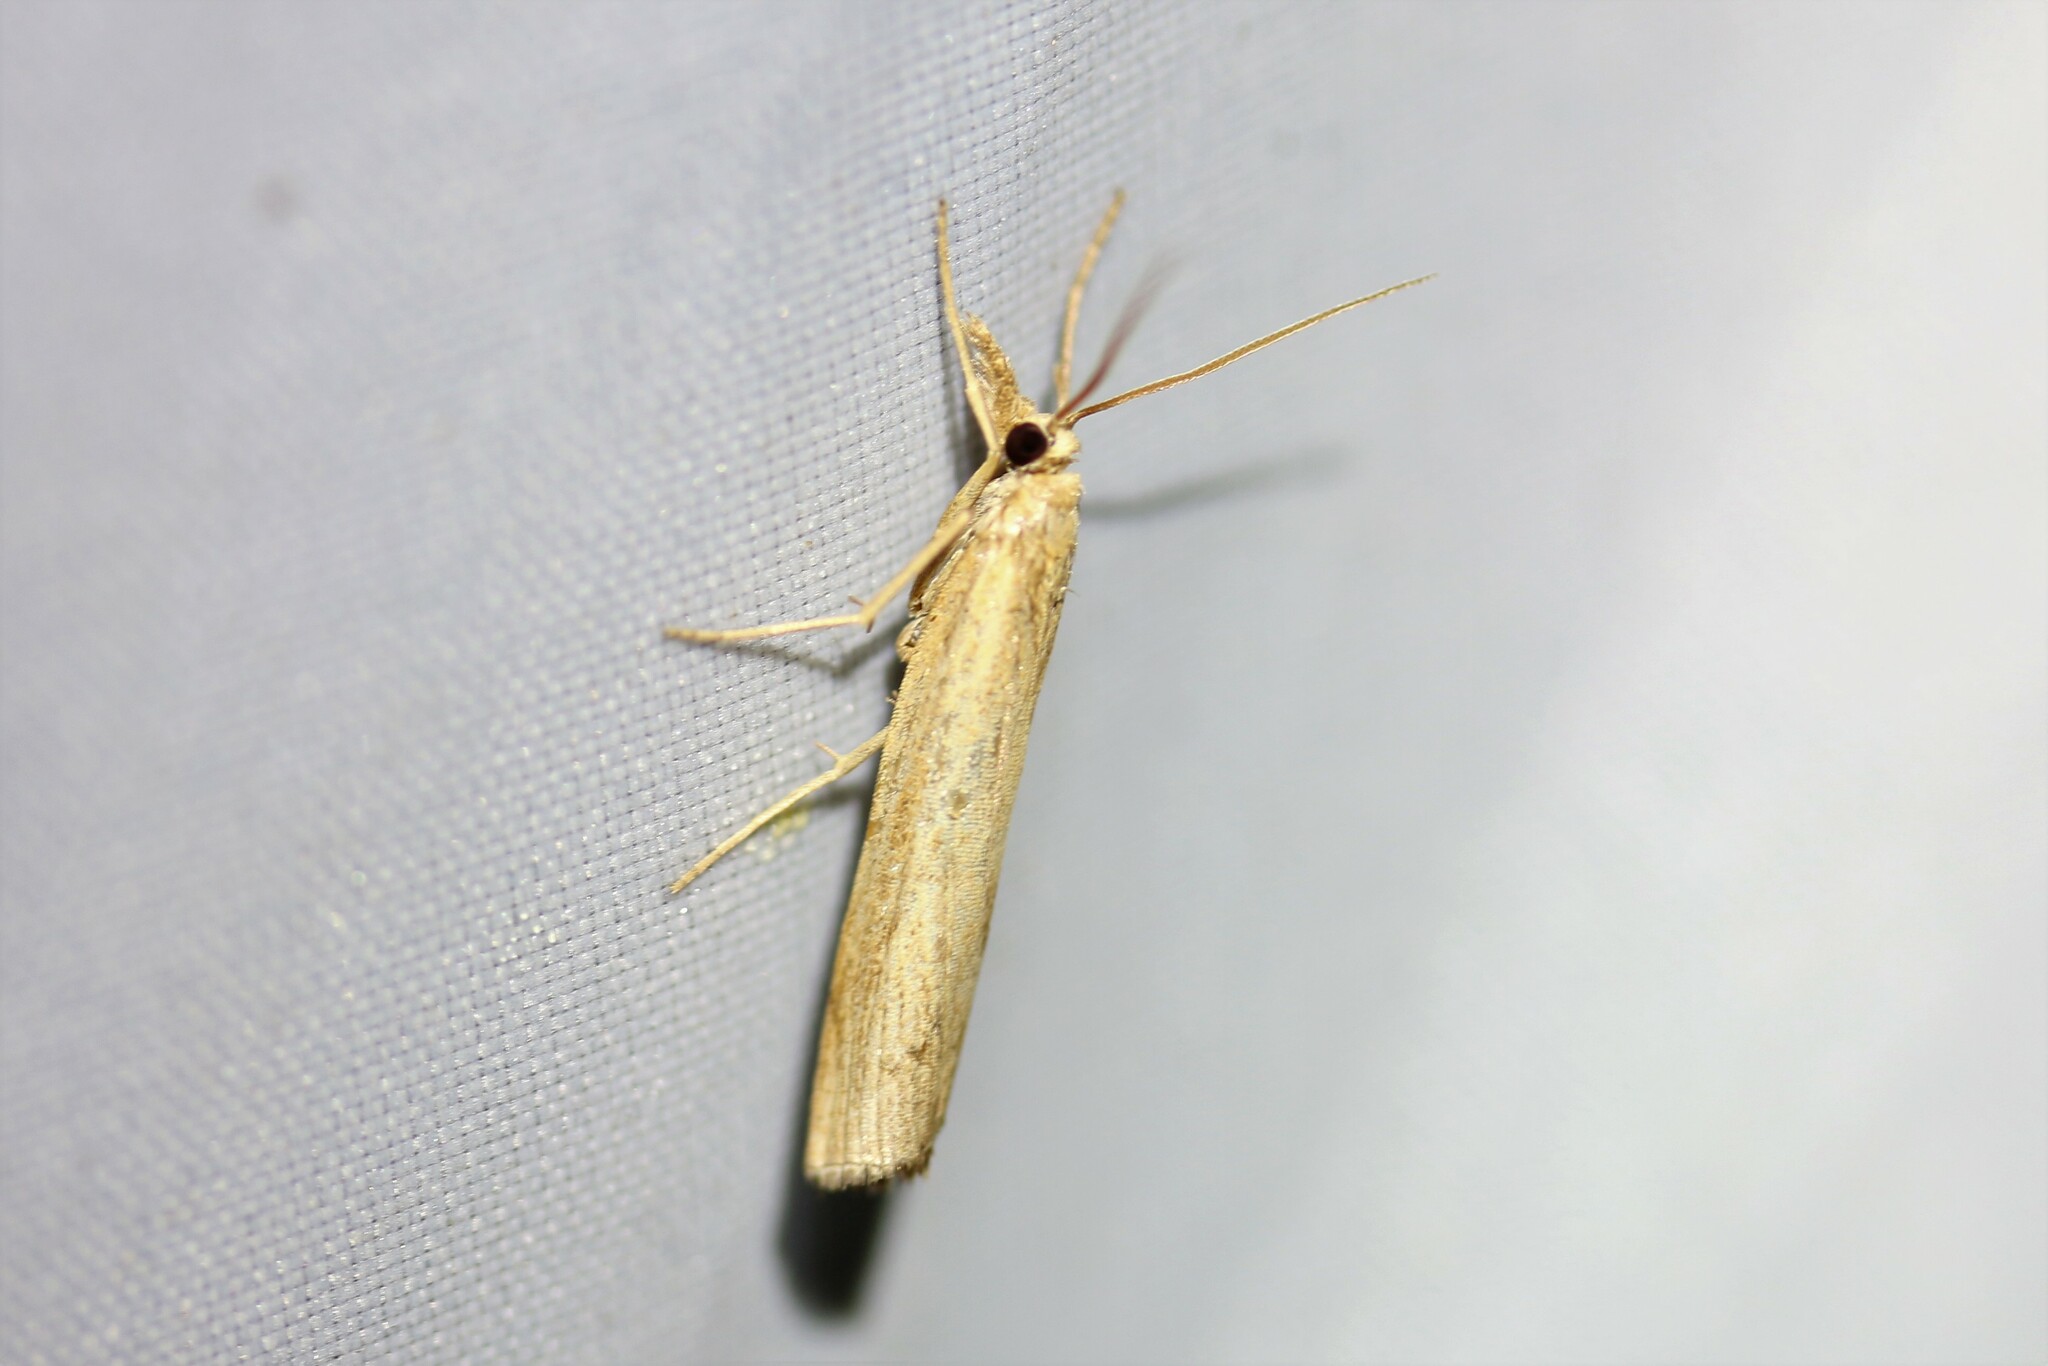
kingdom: Animalia
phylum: Arthropoda
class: Insecta
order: Lepidoptera
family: Crambidae
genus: Pediasia
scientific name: Pediasia contaminella
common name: Waste grass-veneer
